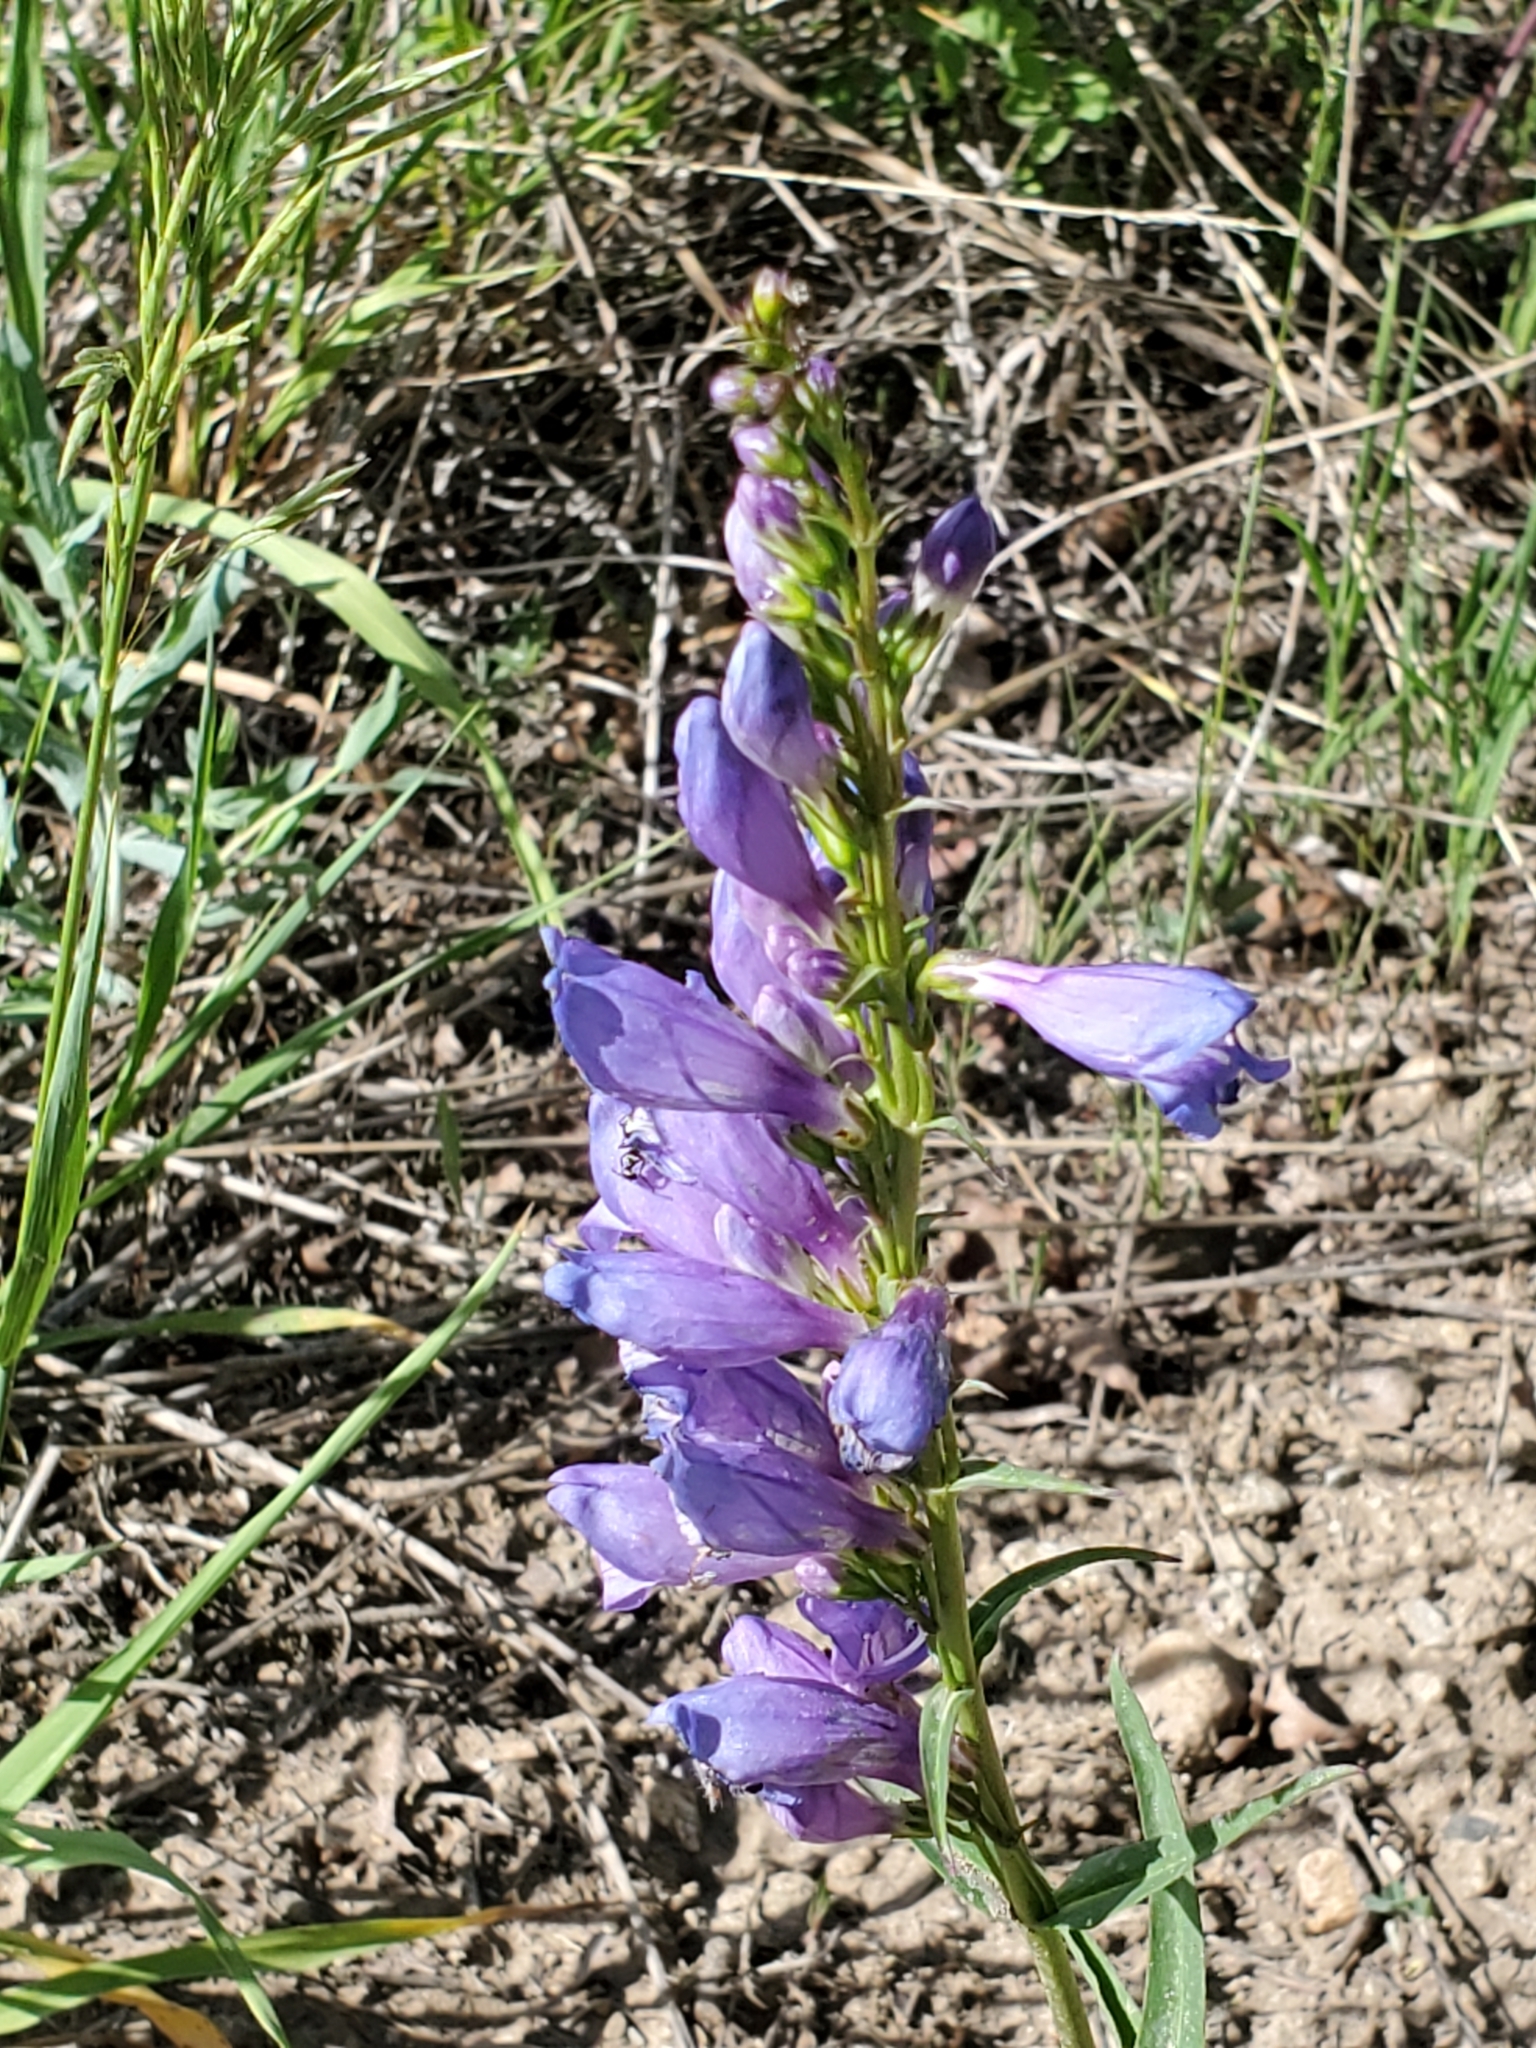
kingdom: Plantae
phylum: Tracheophyta
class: Magnoliopsida
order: Lamiales
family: Plantaginaceae
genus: Penstemon
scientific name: Penstemon strictus
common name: Rocky mountain penstemon
